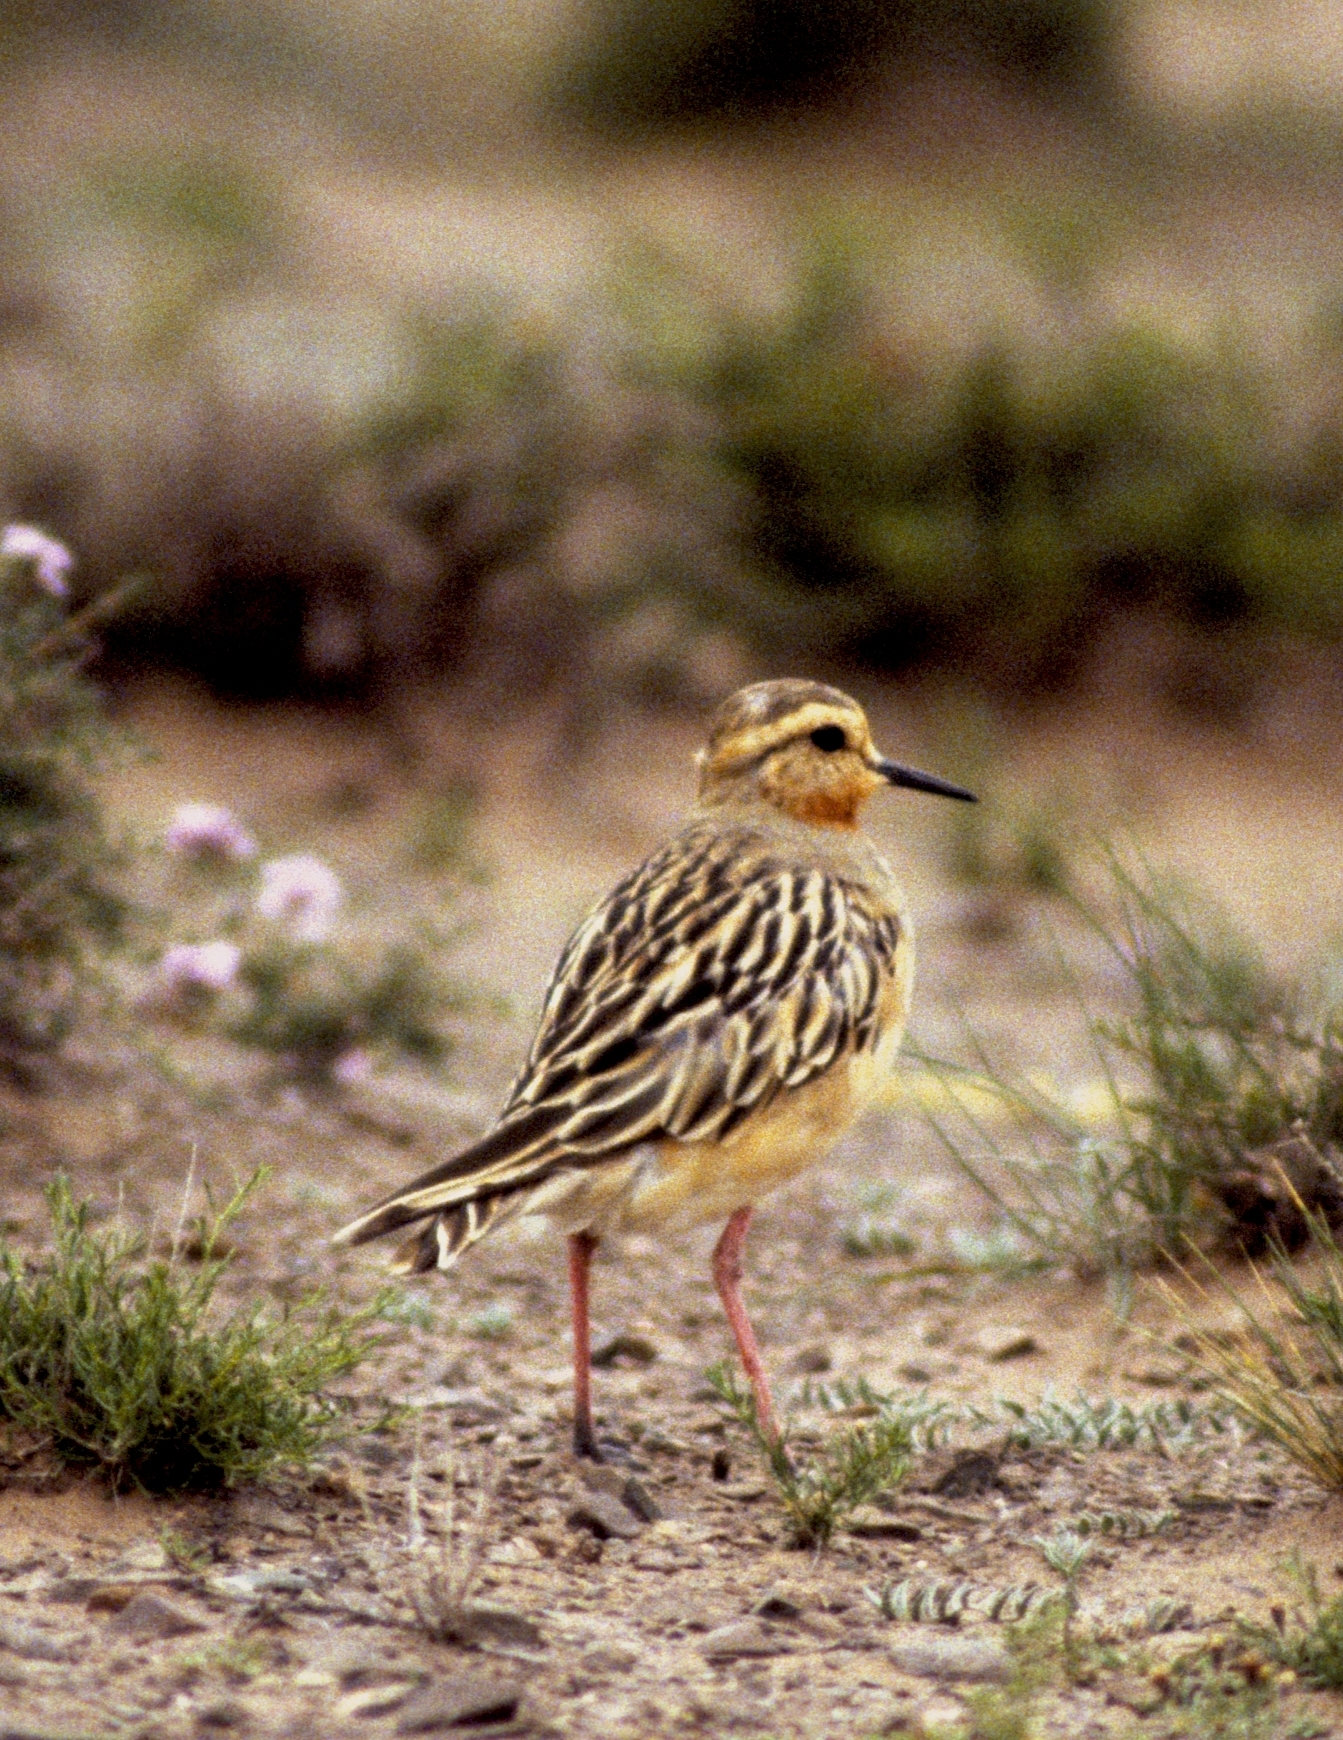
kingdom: Animalia
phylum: Chordata
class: Aves
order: Charadriiformes
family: Charadriidae
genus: Oreopholus
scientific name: Oreopholus ruficollis
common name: Tawny-throated dotterel
